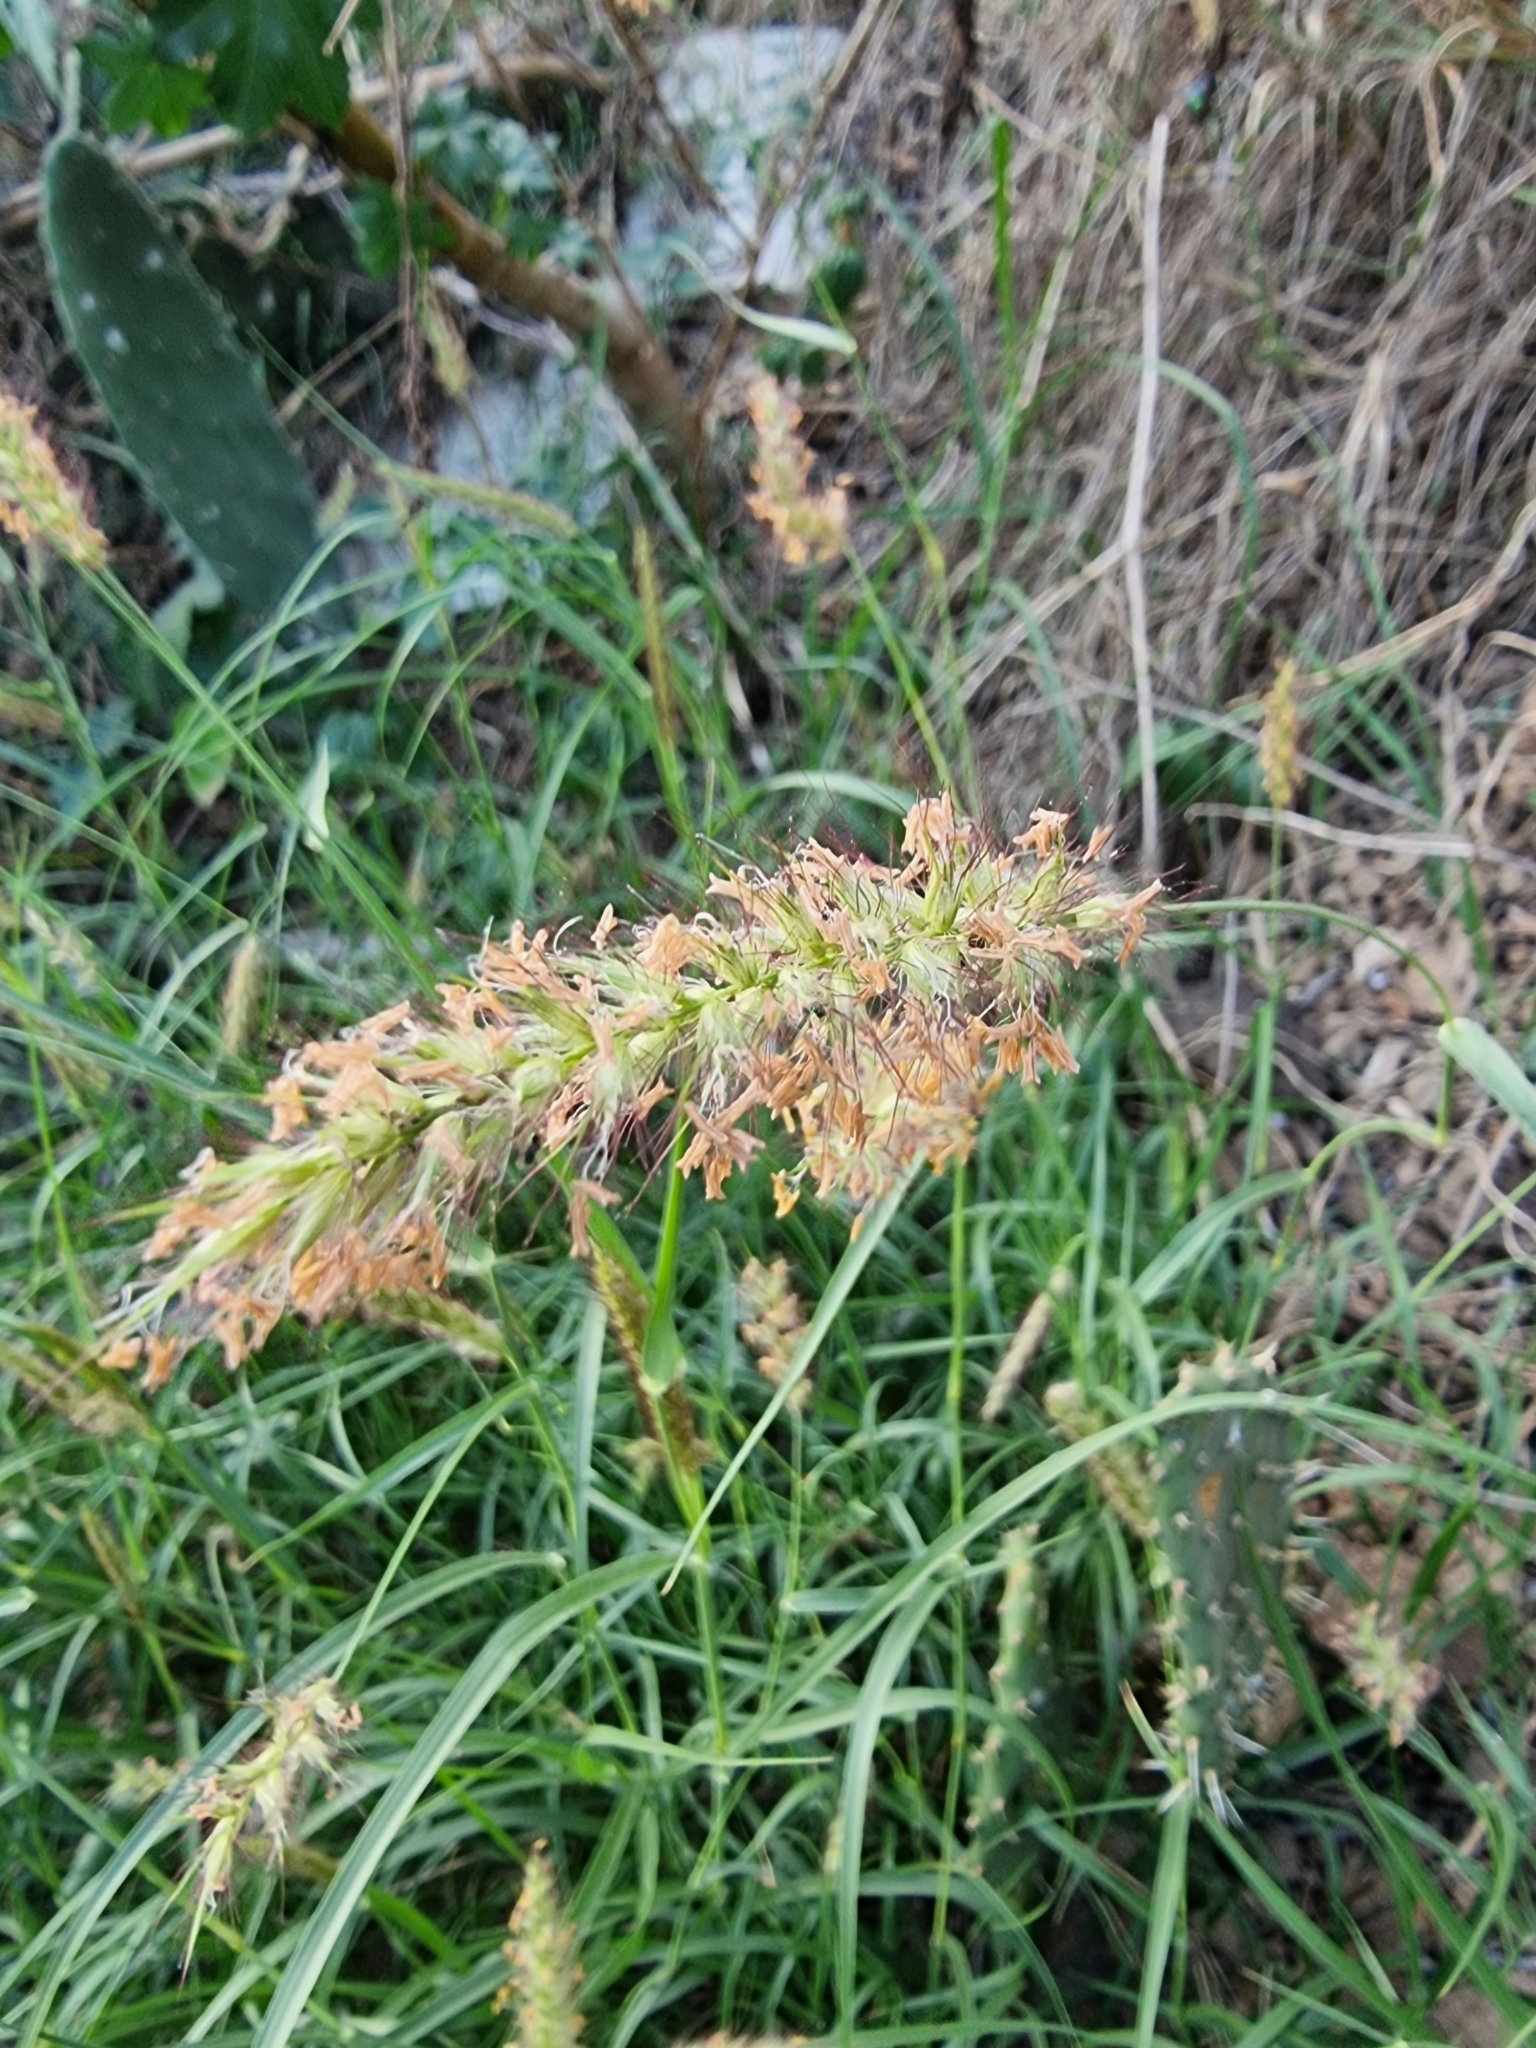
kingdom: Plantae
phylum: Tracheophyta
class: Liliopsida
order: Poales
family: Poaceae
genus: Cenchrus
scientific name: Cenchrus ciliaris
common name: Buffelgrass
